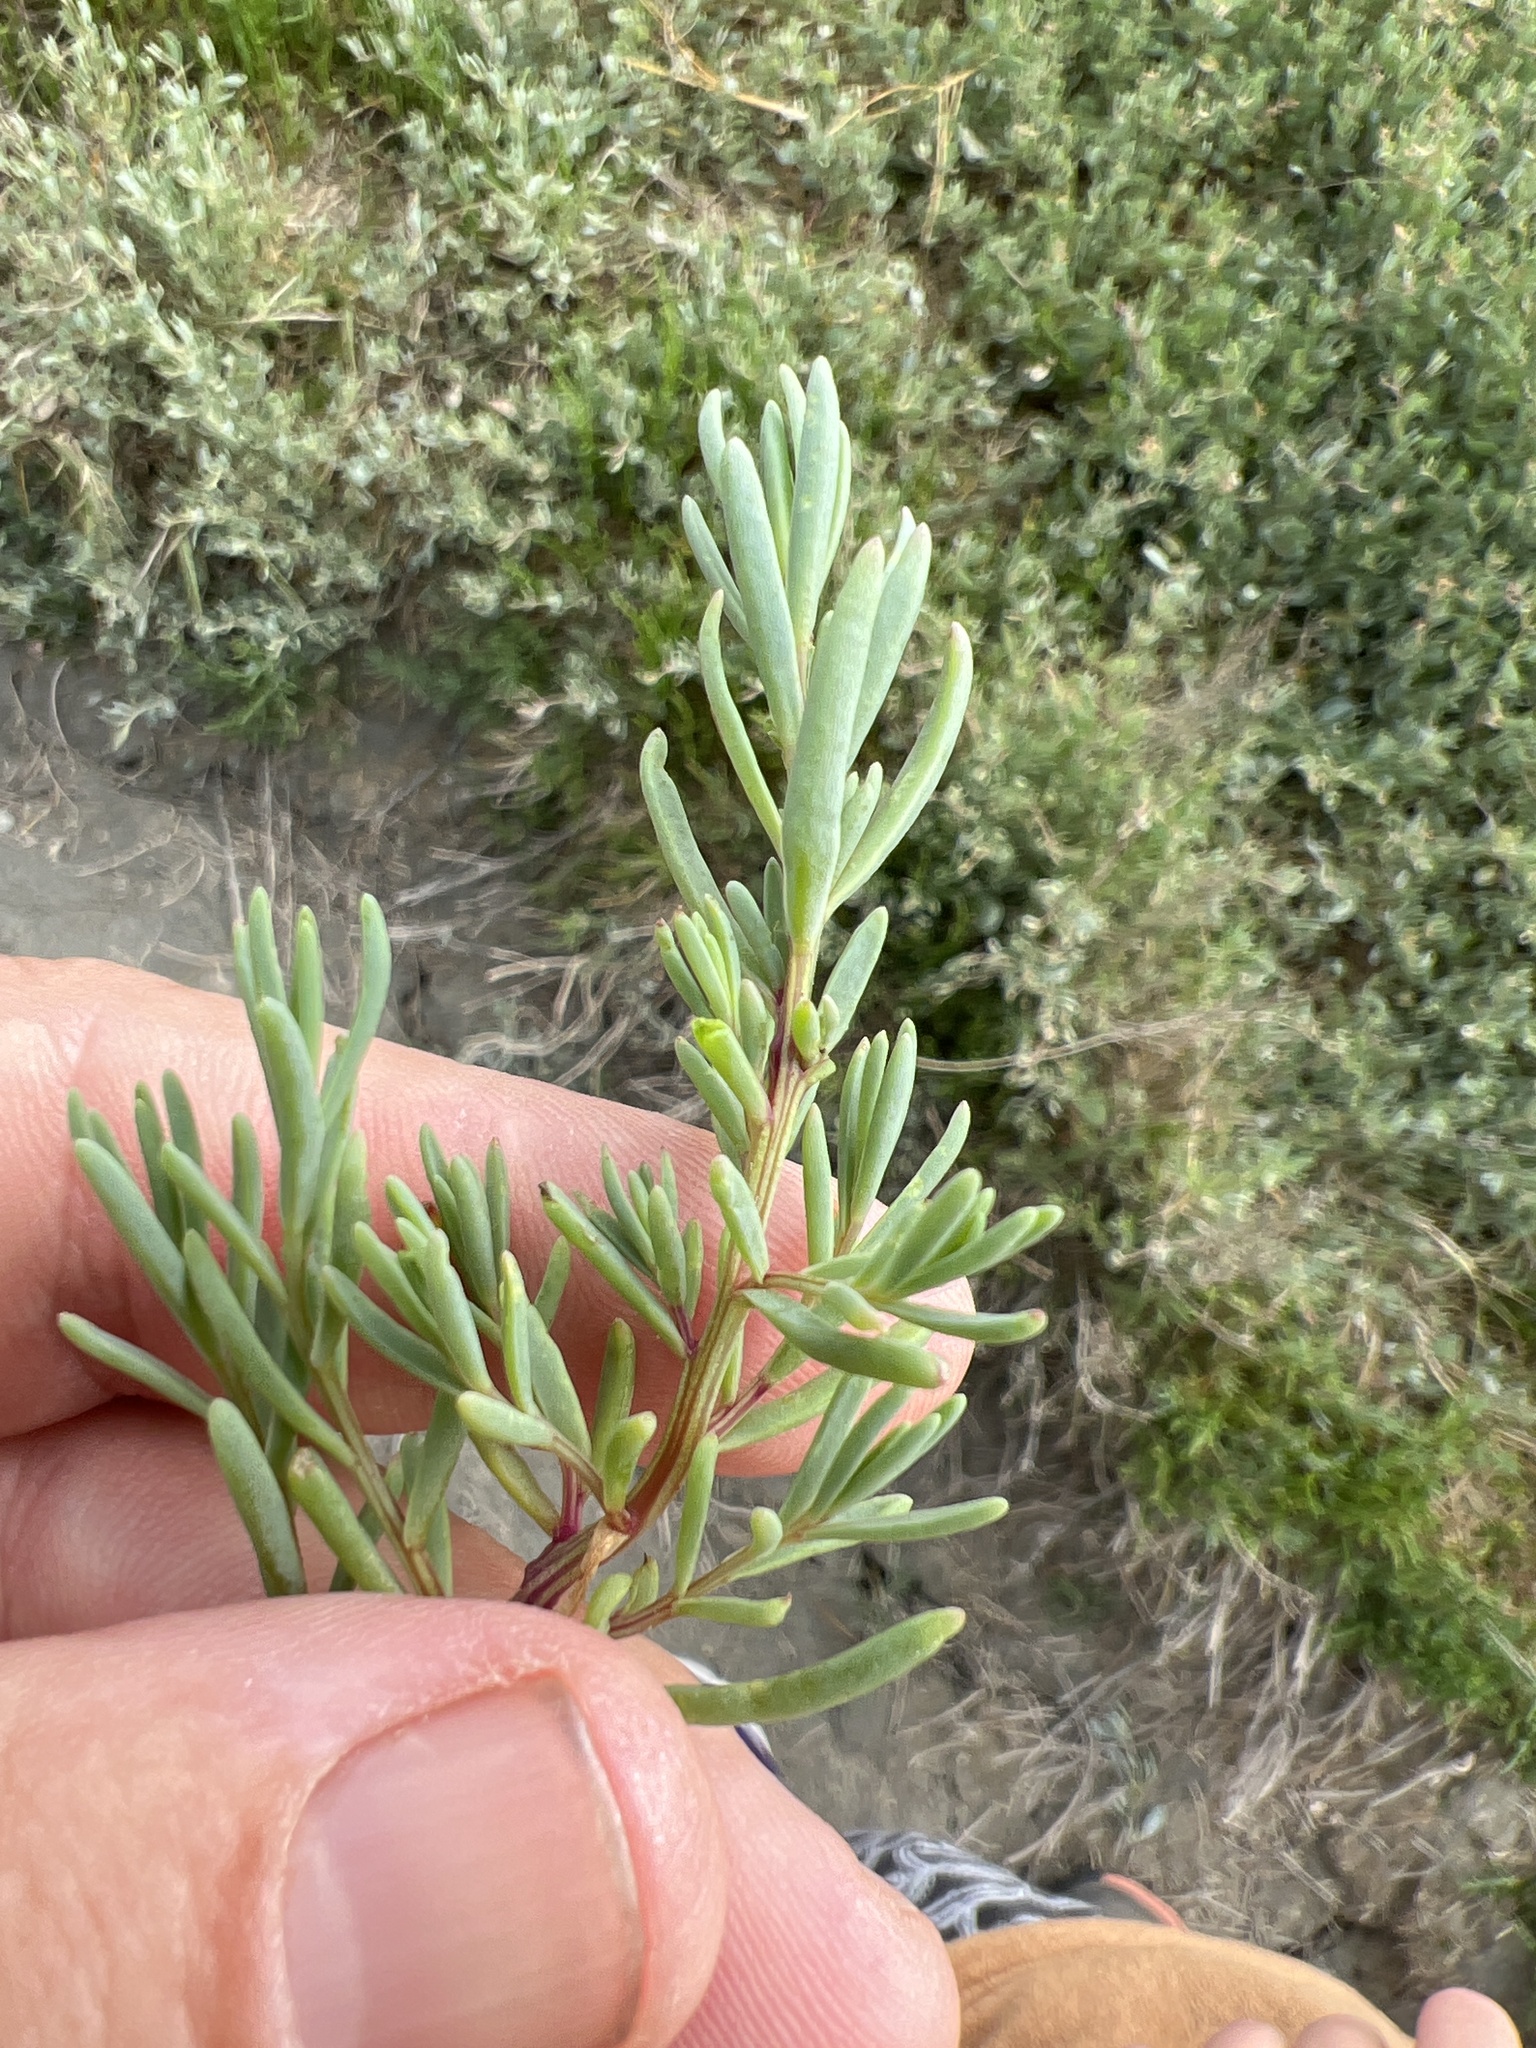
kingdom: Plantae
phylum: Tracheophyta
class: Magnoliopsida
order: Caryophyllales
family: Amaranthaceae
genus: Suaeda
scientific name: Suaeda maritima
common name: Annual sea-blite
